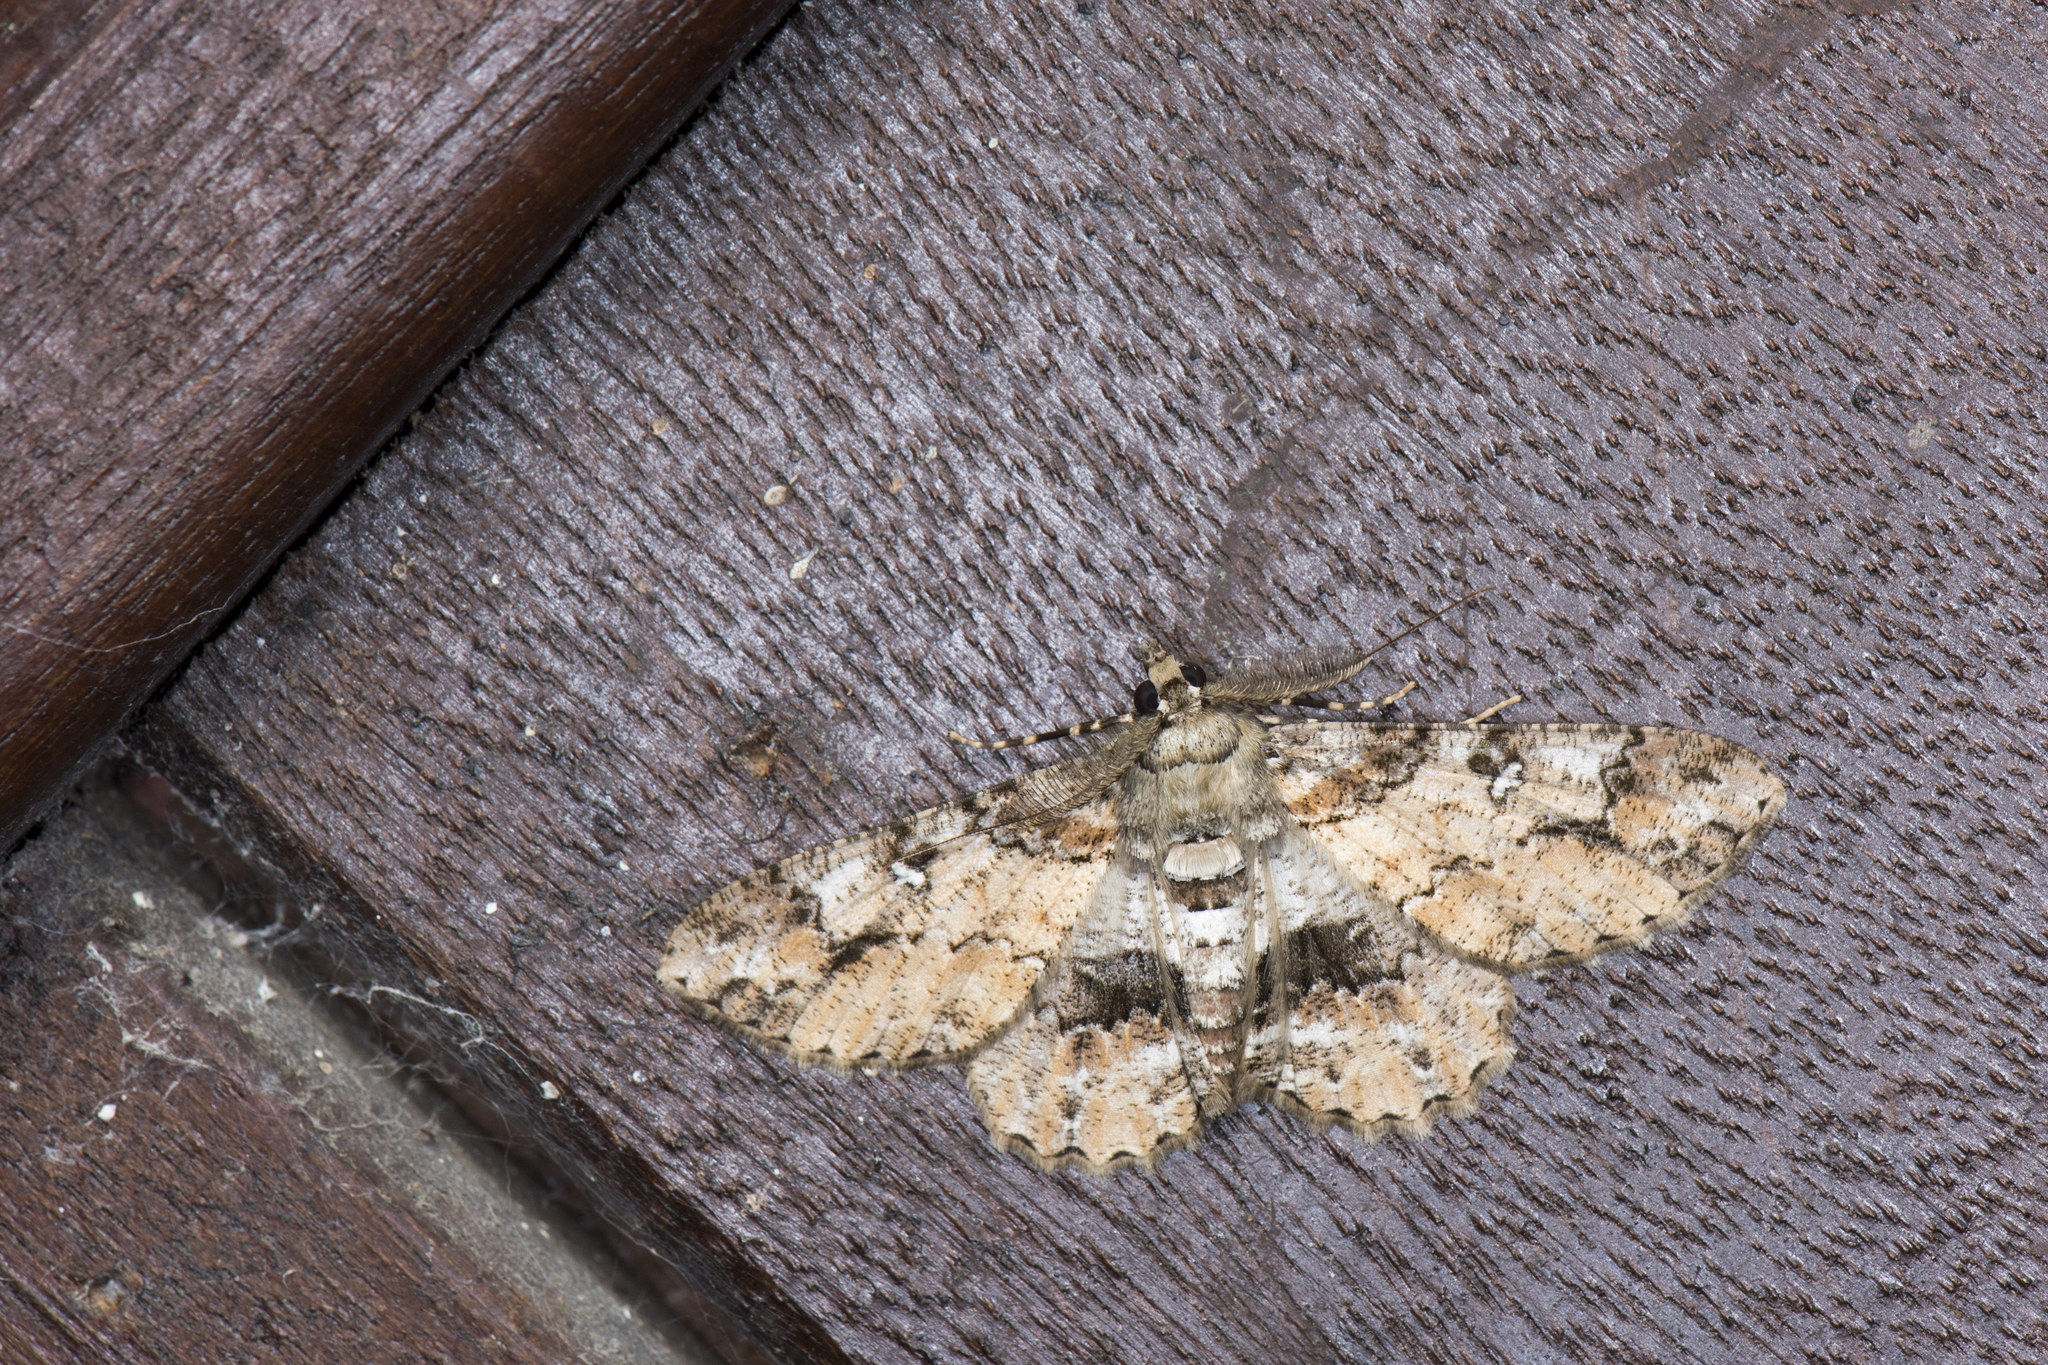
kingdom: Animalia
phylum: Arthropoda
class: Insecta
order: Lepidoptera
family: Geometridae
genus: Cleora
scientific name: Cleora fraterna
